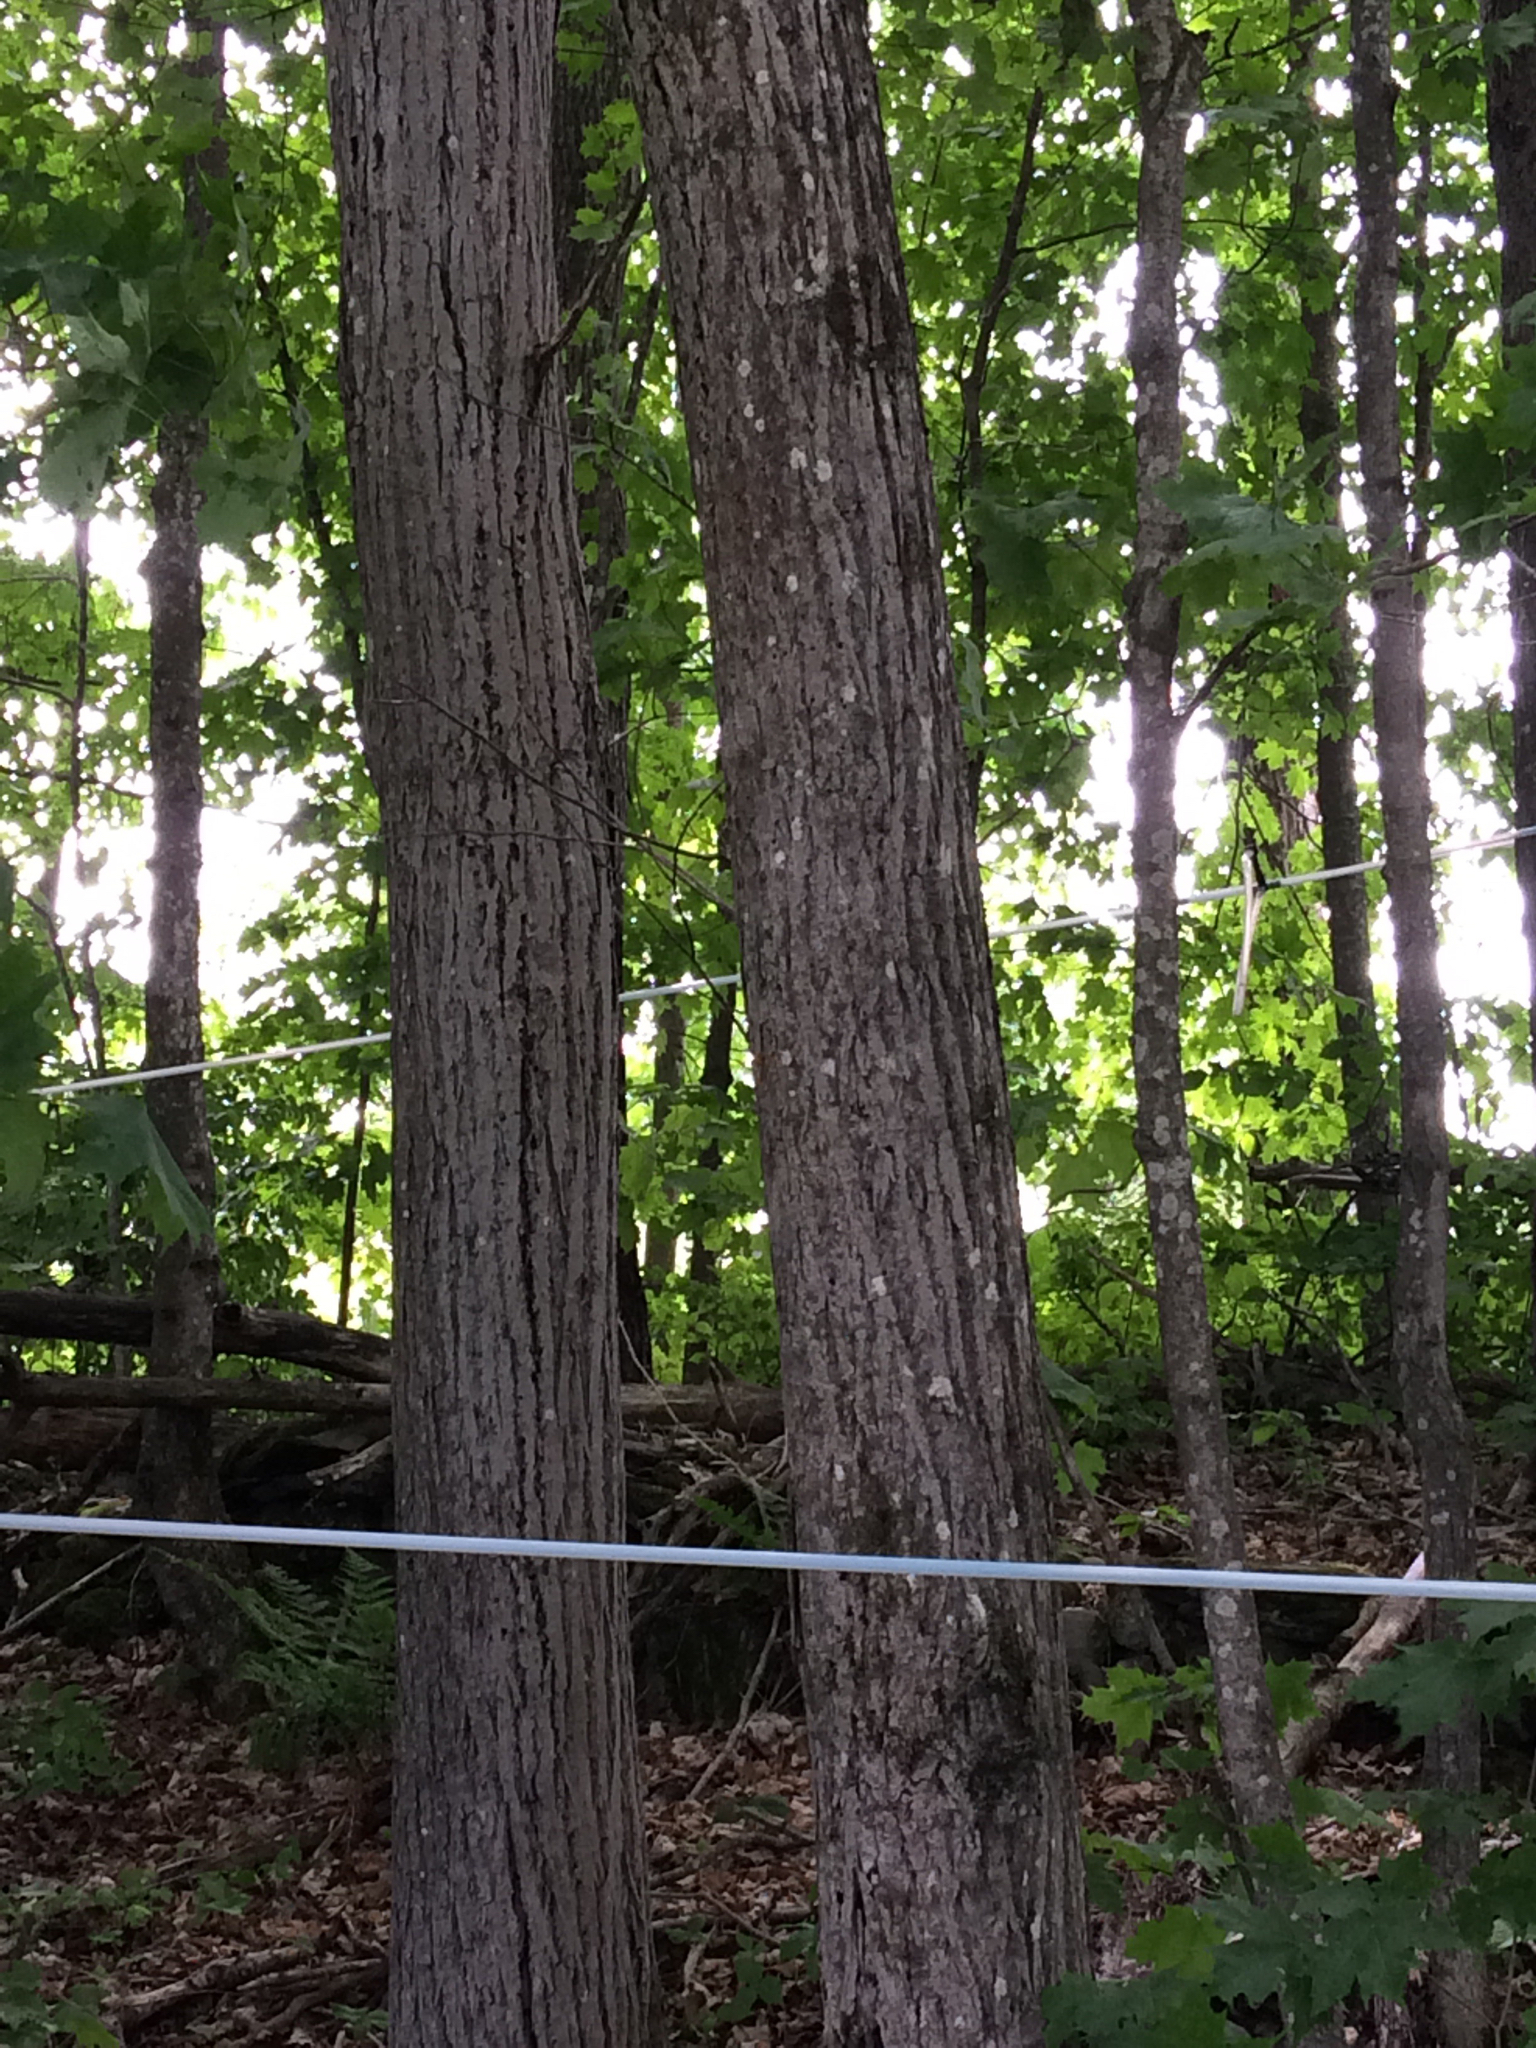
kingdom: Plantae
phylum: Tracheophyta
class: Magnoliopsida
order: Fagales
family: Juglandaceae
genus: Juglans
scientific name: Juglans cinerea
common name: Butternut
